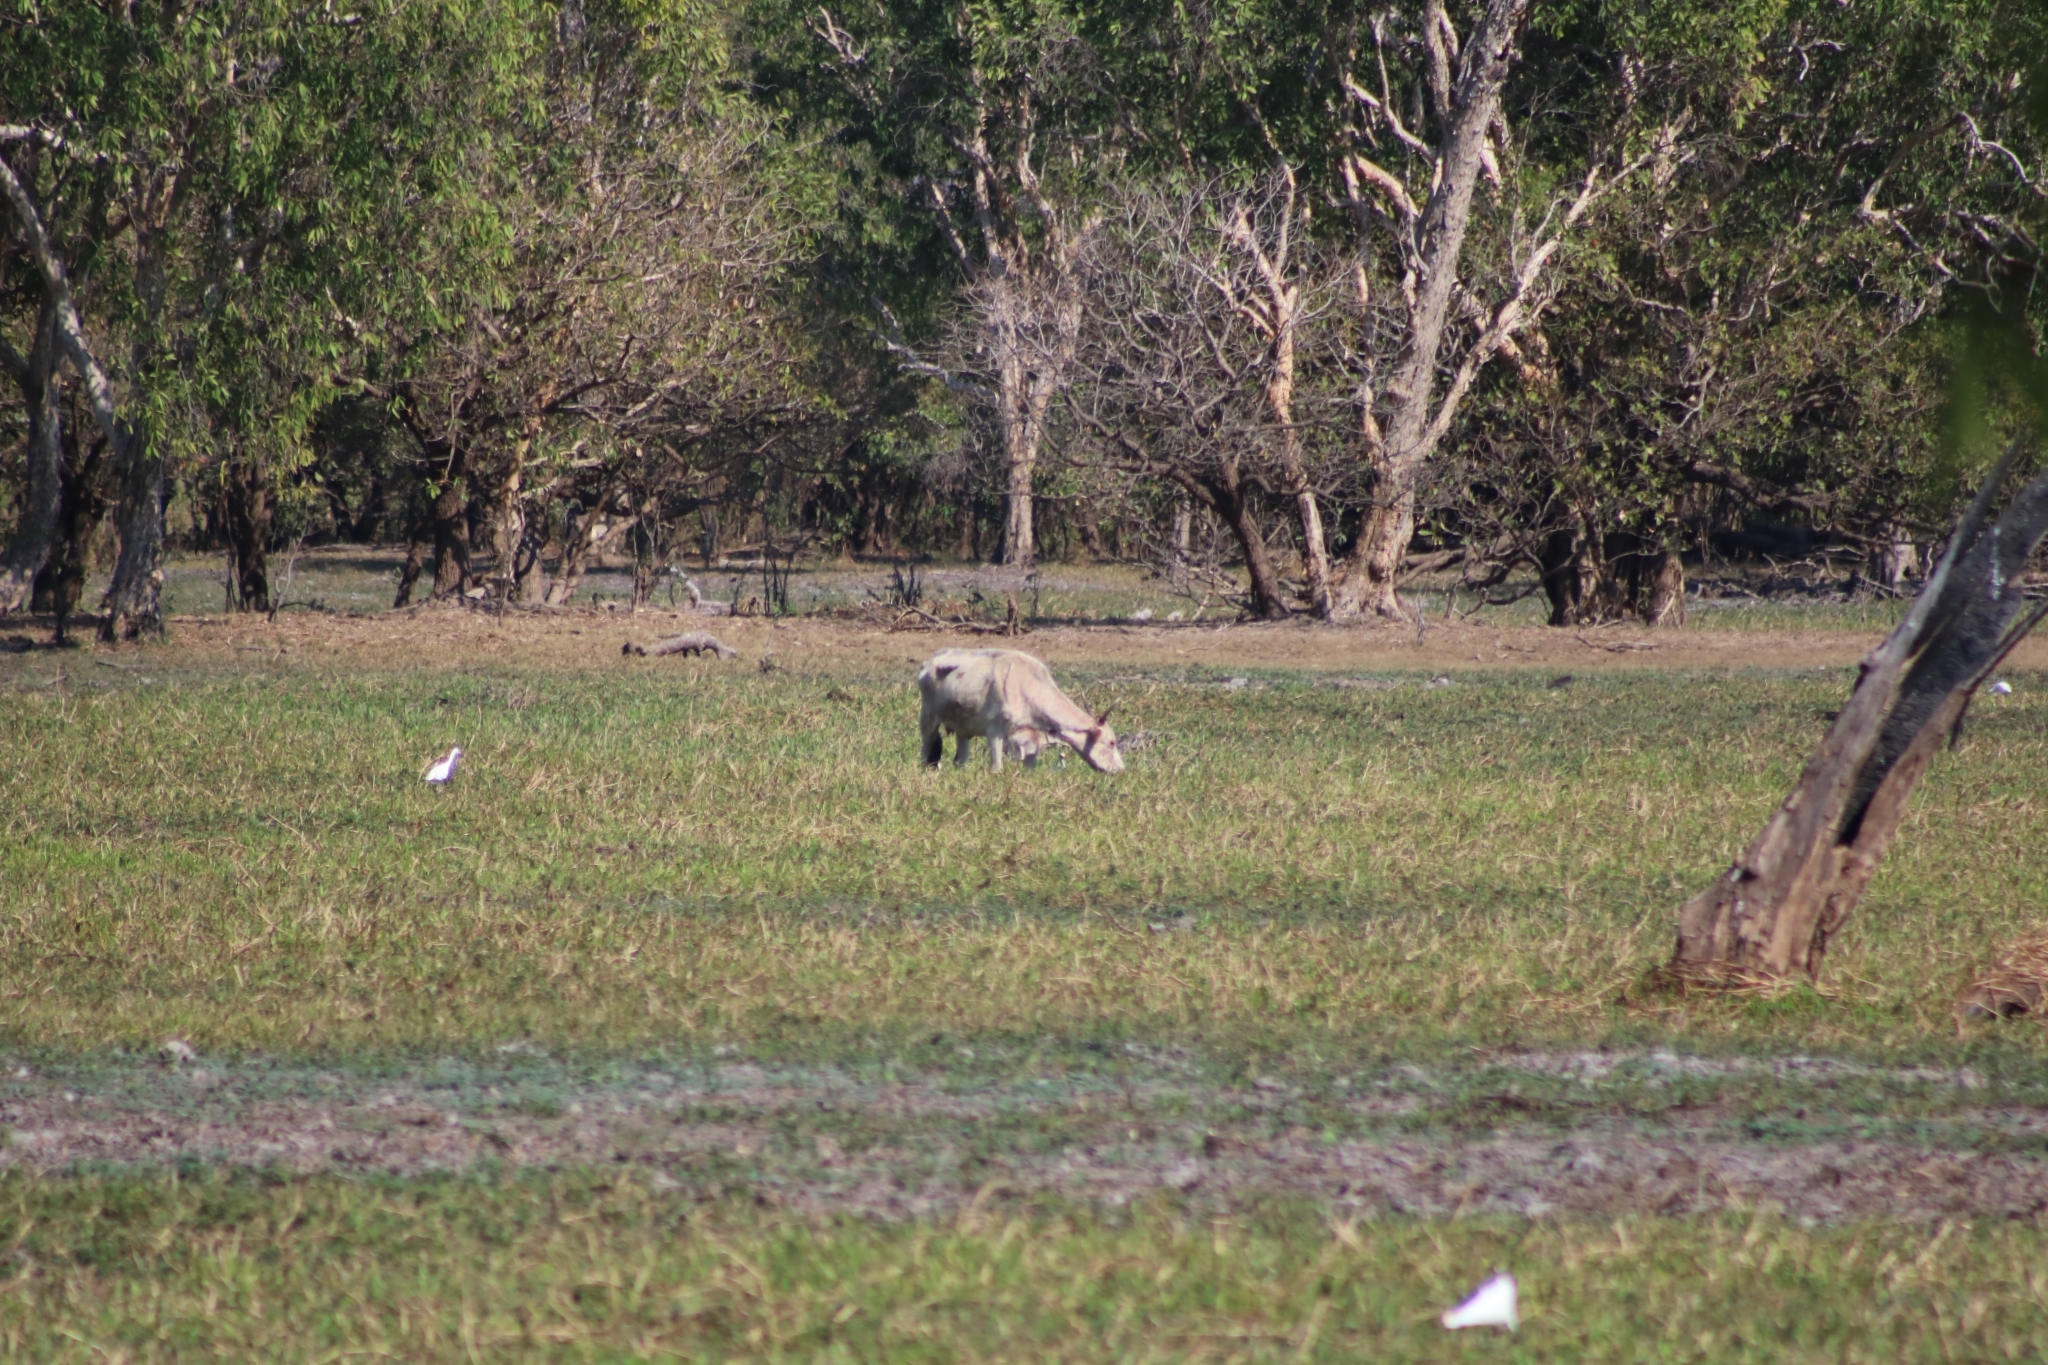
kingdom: Animalia
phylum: Chordata
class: Mammalia
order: Artiodactyla
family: Bovidae
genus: Bos
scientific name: Bos
